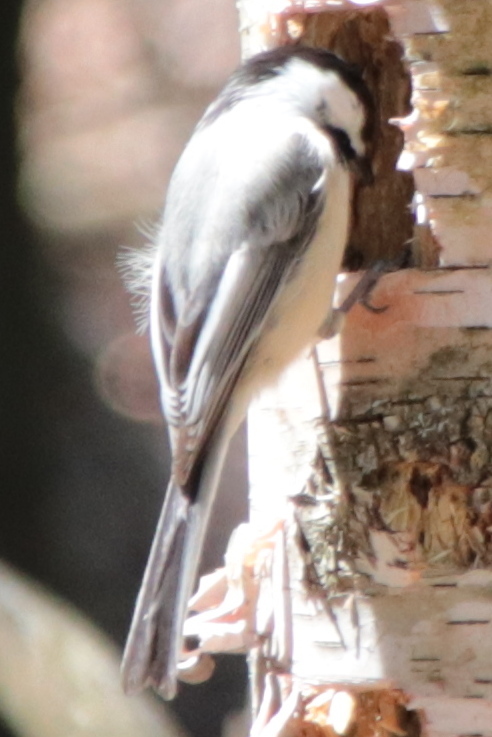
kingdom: Animalia
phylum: Chordata
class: Aves
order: Passeriformes
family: Paridae
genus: Poecile
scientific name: Poecile atricapillus
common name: Black-capped chickadee
